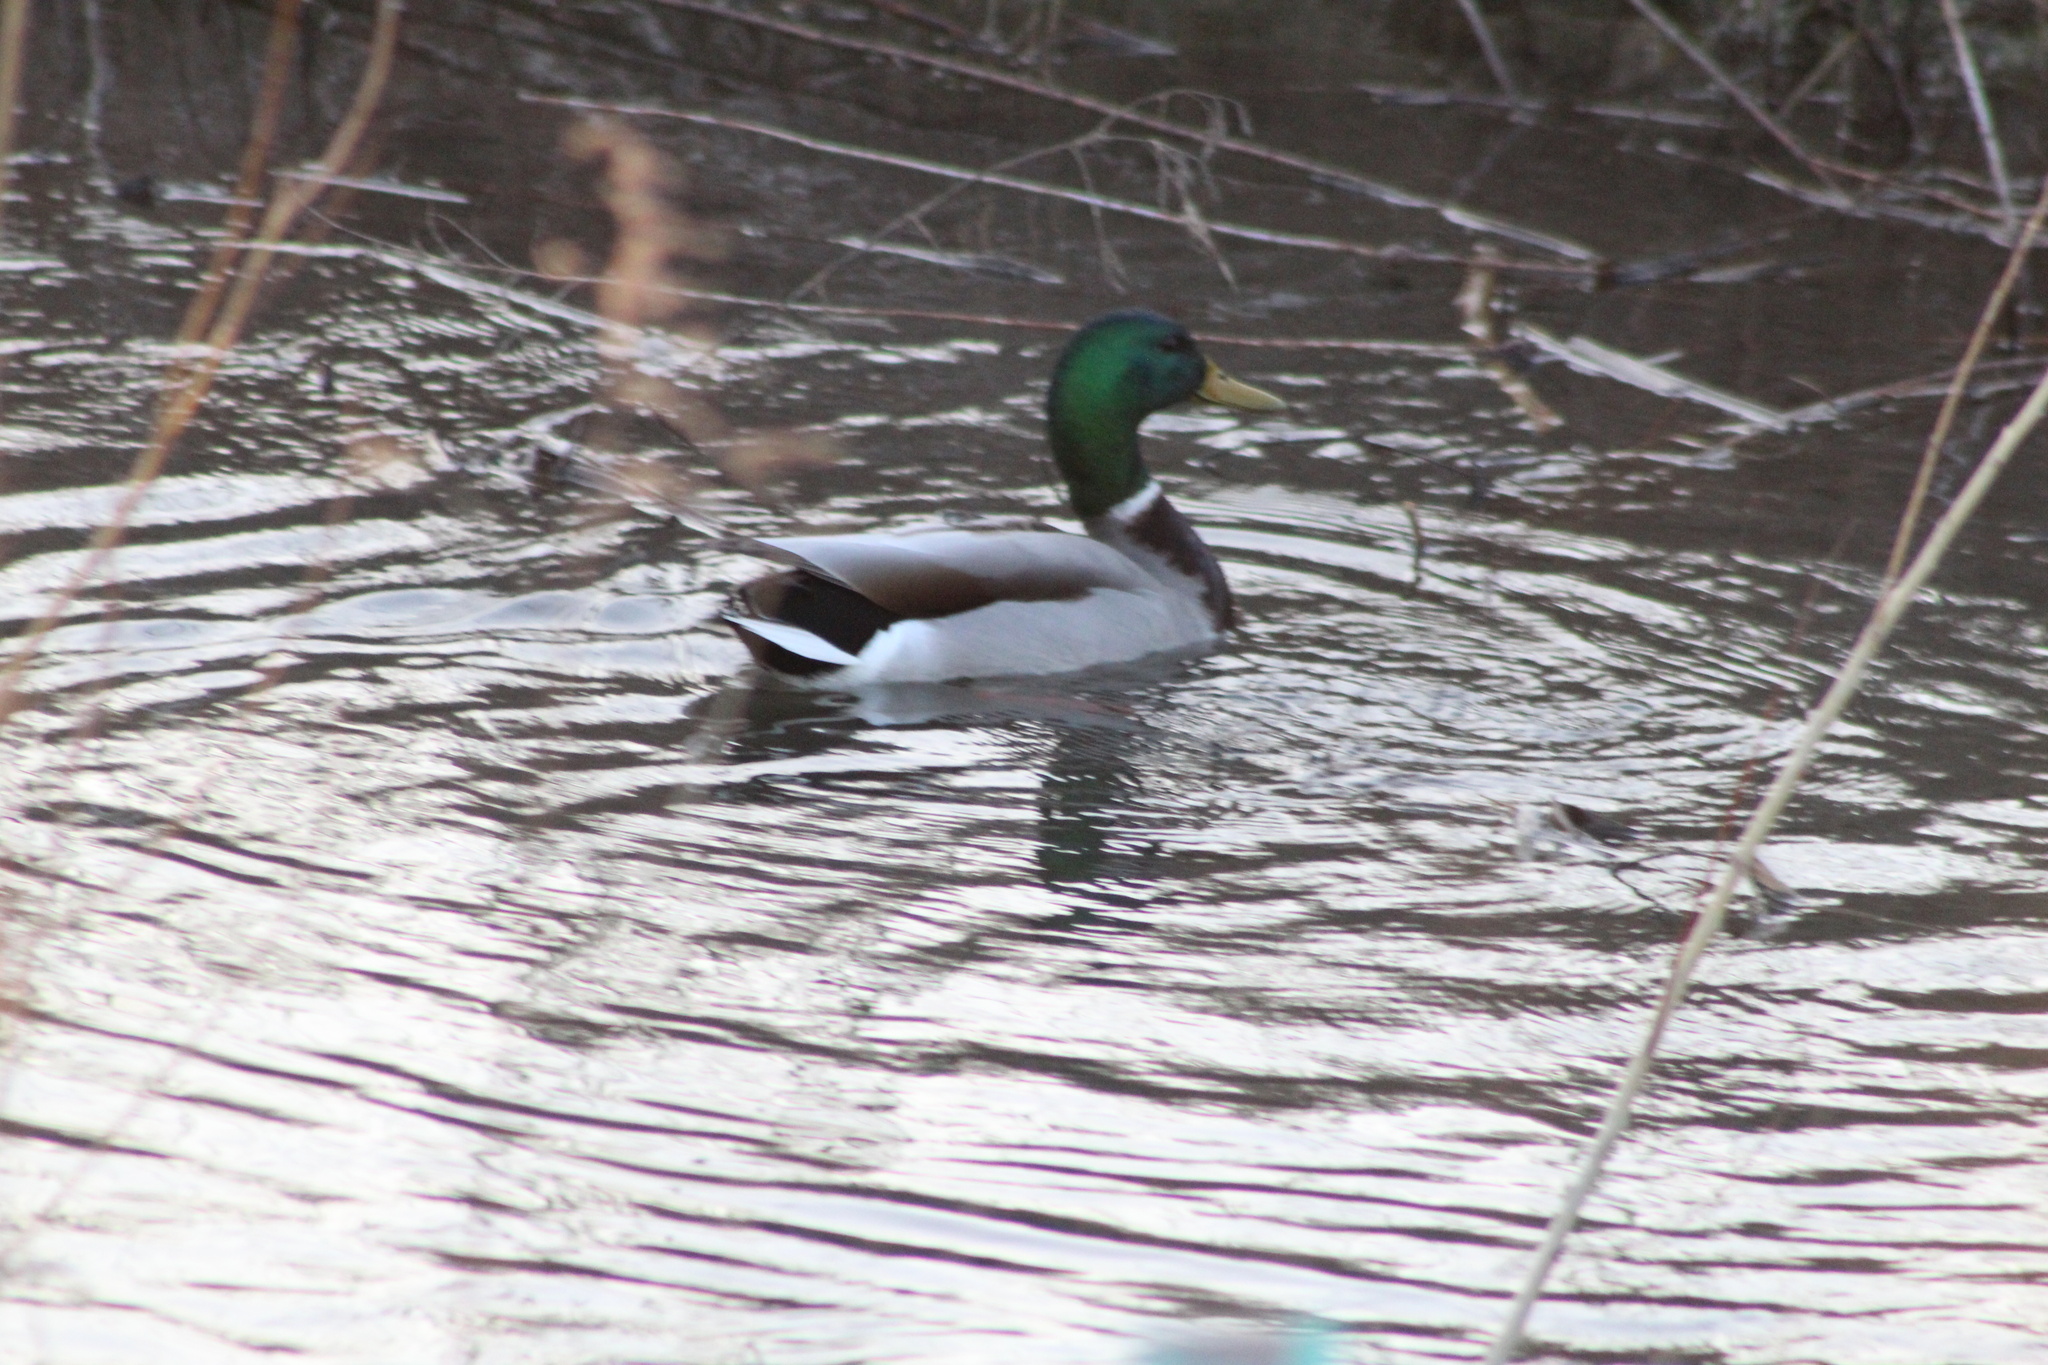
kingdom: Animalia
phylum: Chordata
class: Aves
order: Anseriformes
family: Anatidae
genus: Anas
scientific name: Anas platyrhynchos
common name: Mallard
